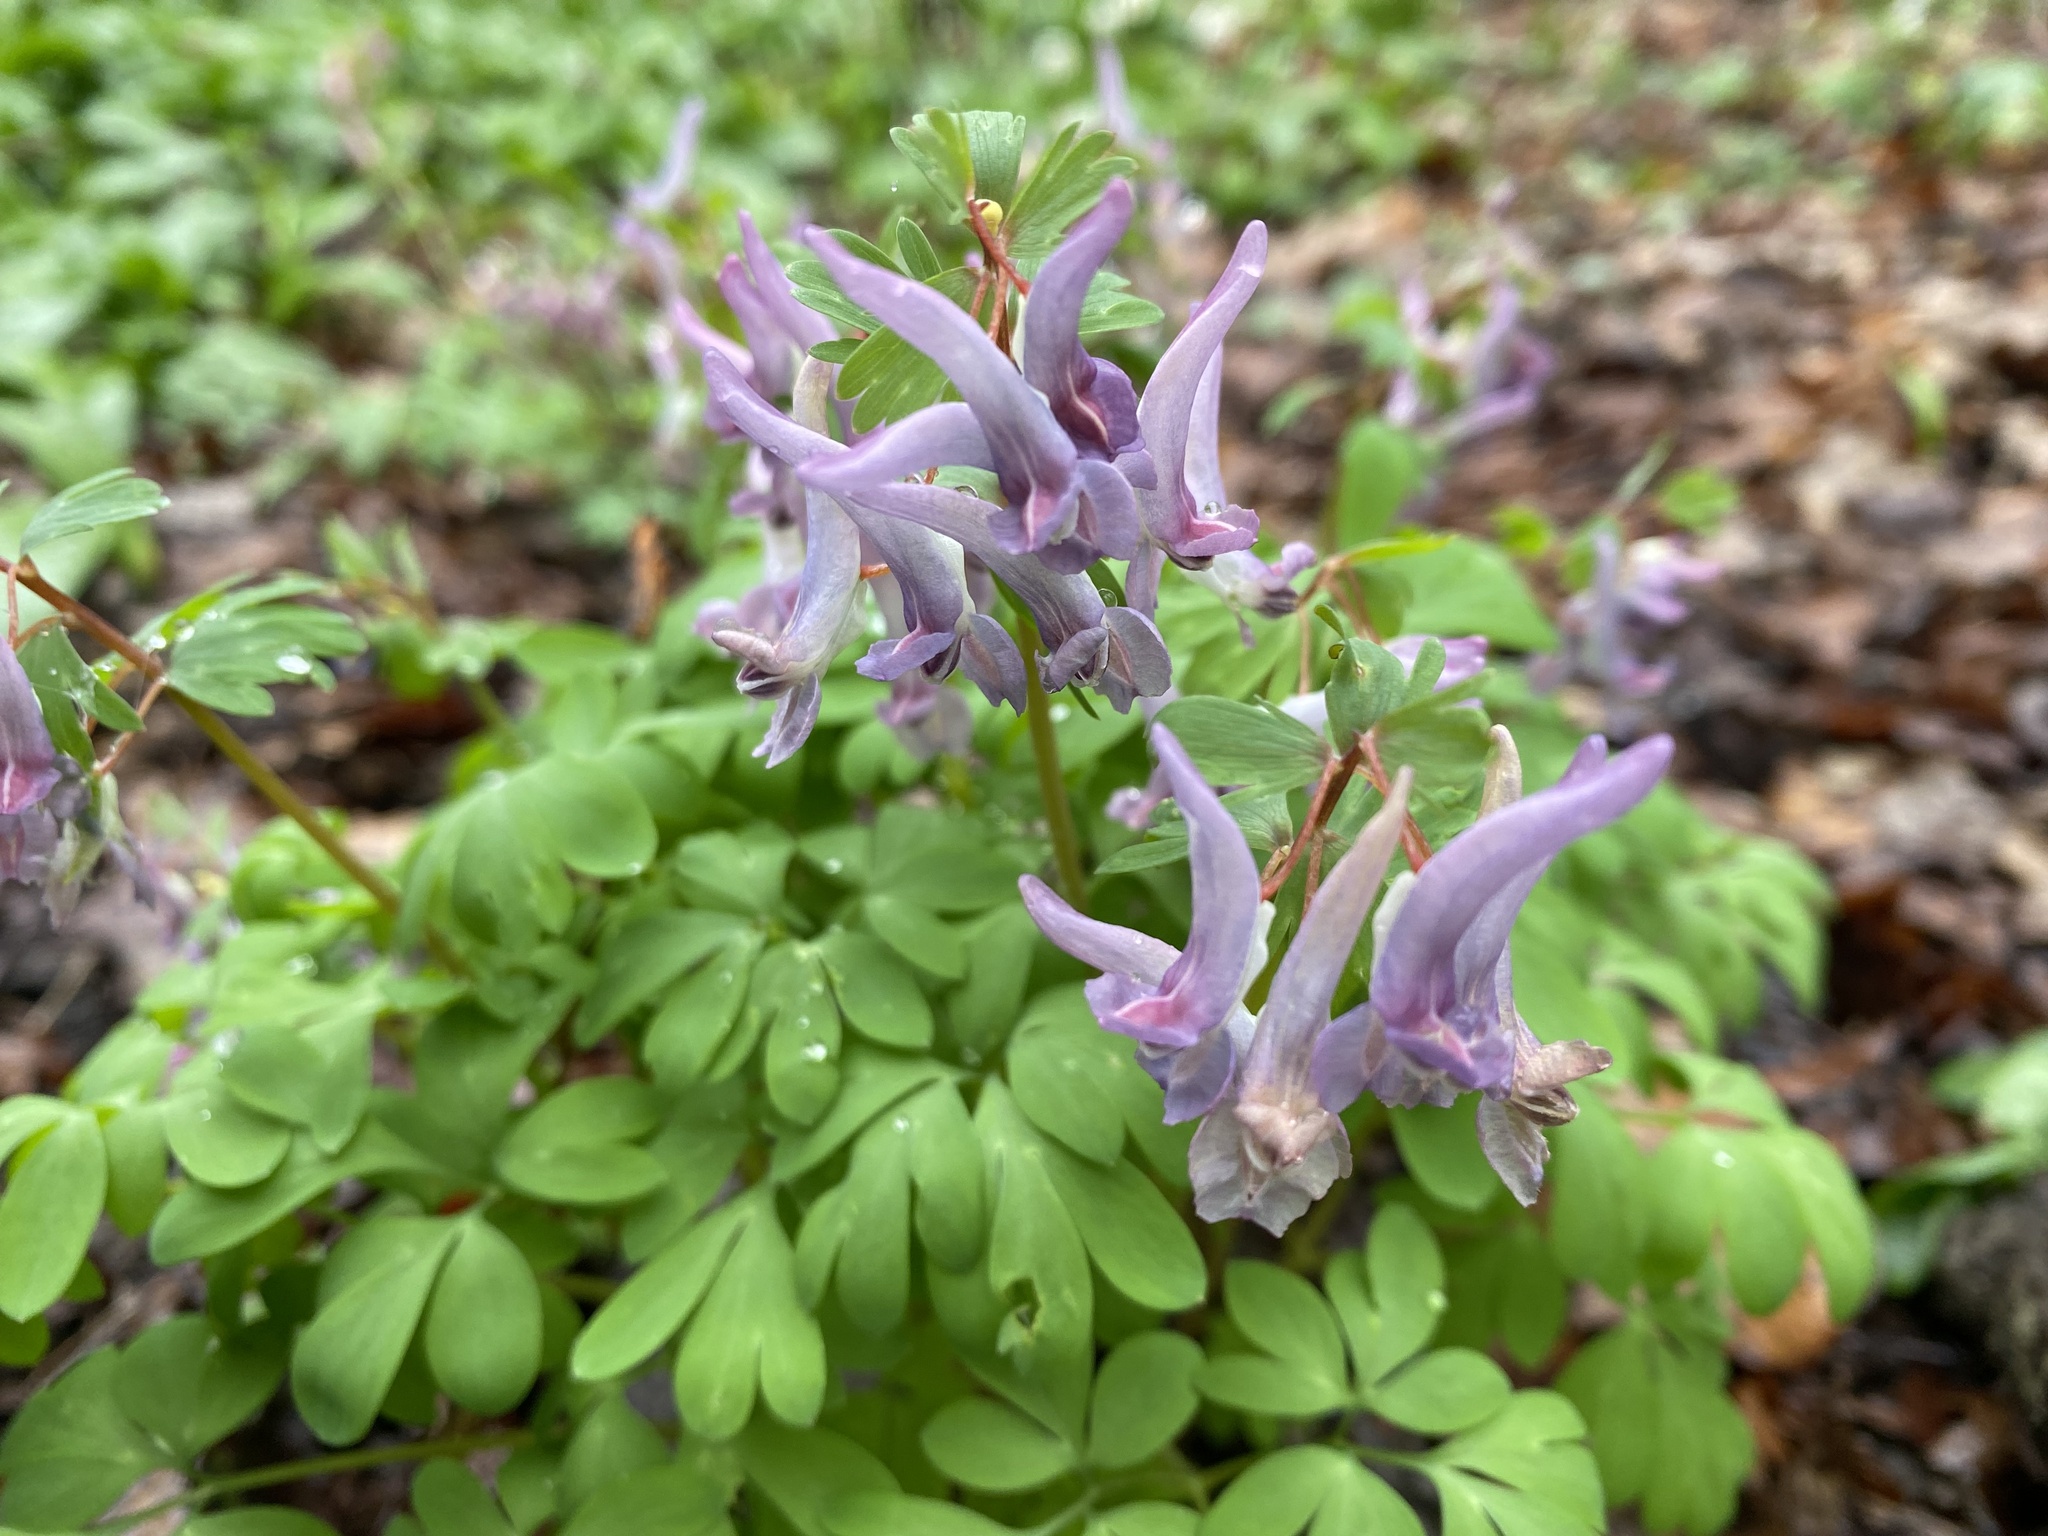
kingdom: Plantae
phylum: Tracheophyta
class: Magnoliopsida
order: Ranunculales
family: Papaveraceae
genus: Corydalis
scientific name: Corydalis solida
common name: Bird-in-a-bush
